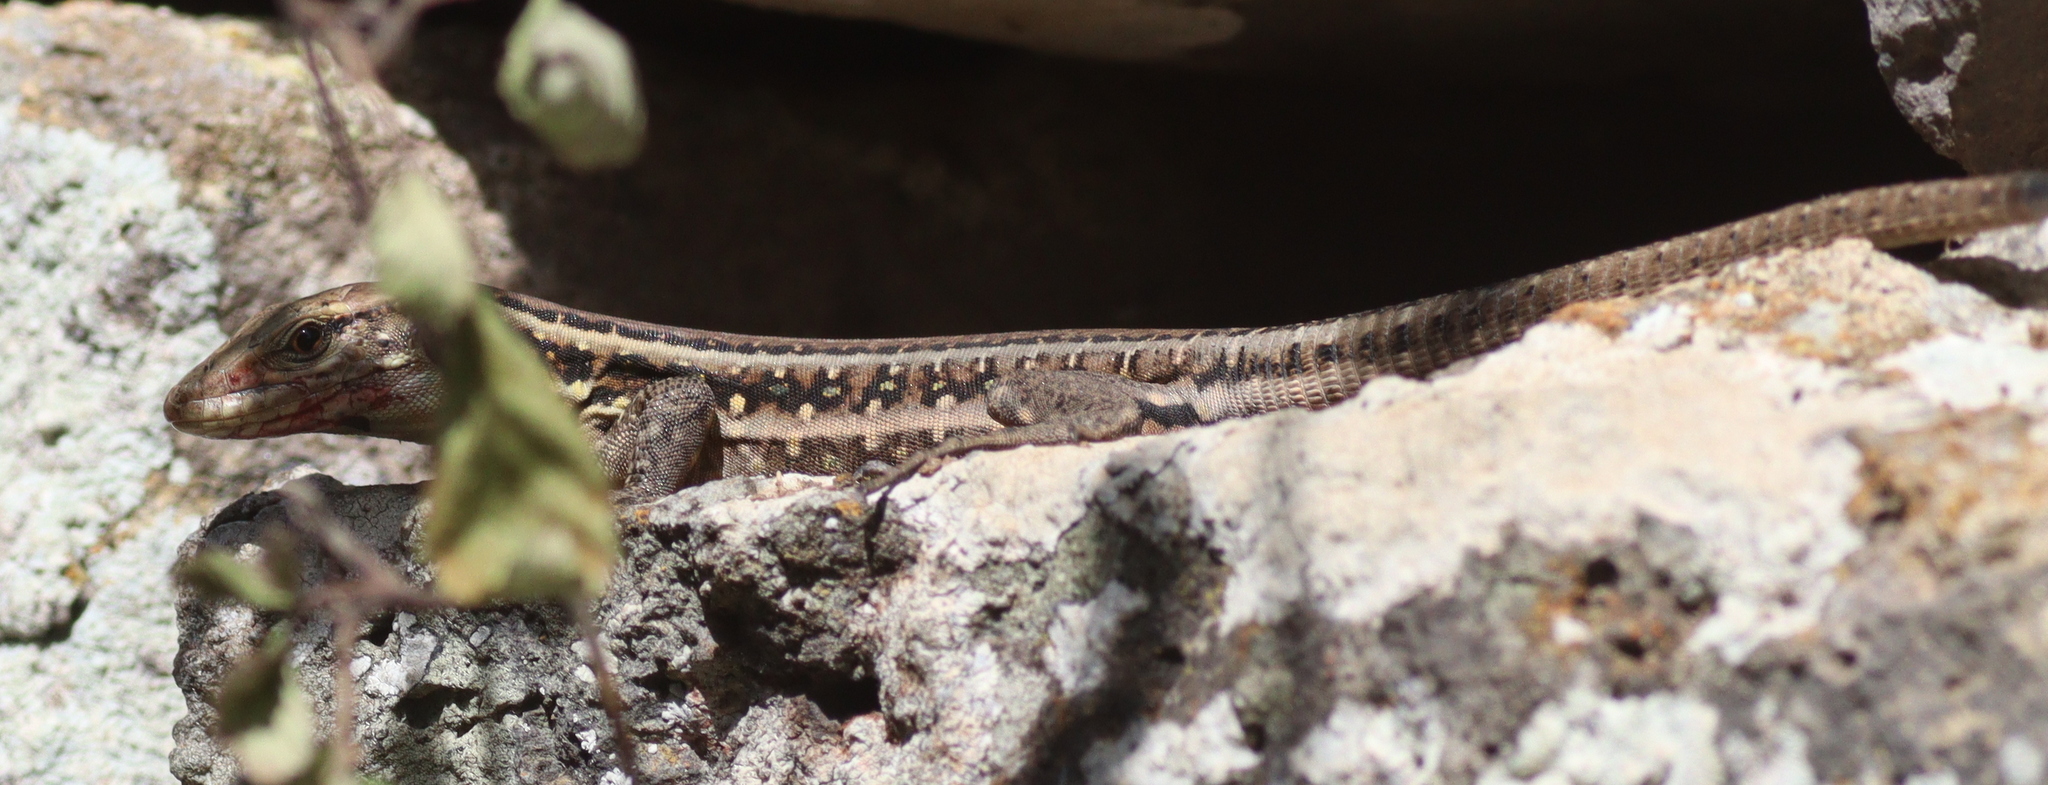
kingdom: Animalia
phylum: Chordata
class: Squamata
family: Lacertidae
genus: Gallotia
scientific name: Gallotia galloti
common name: Gallot's lizard
